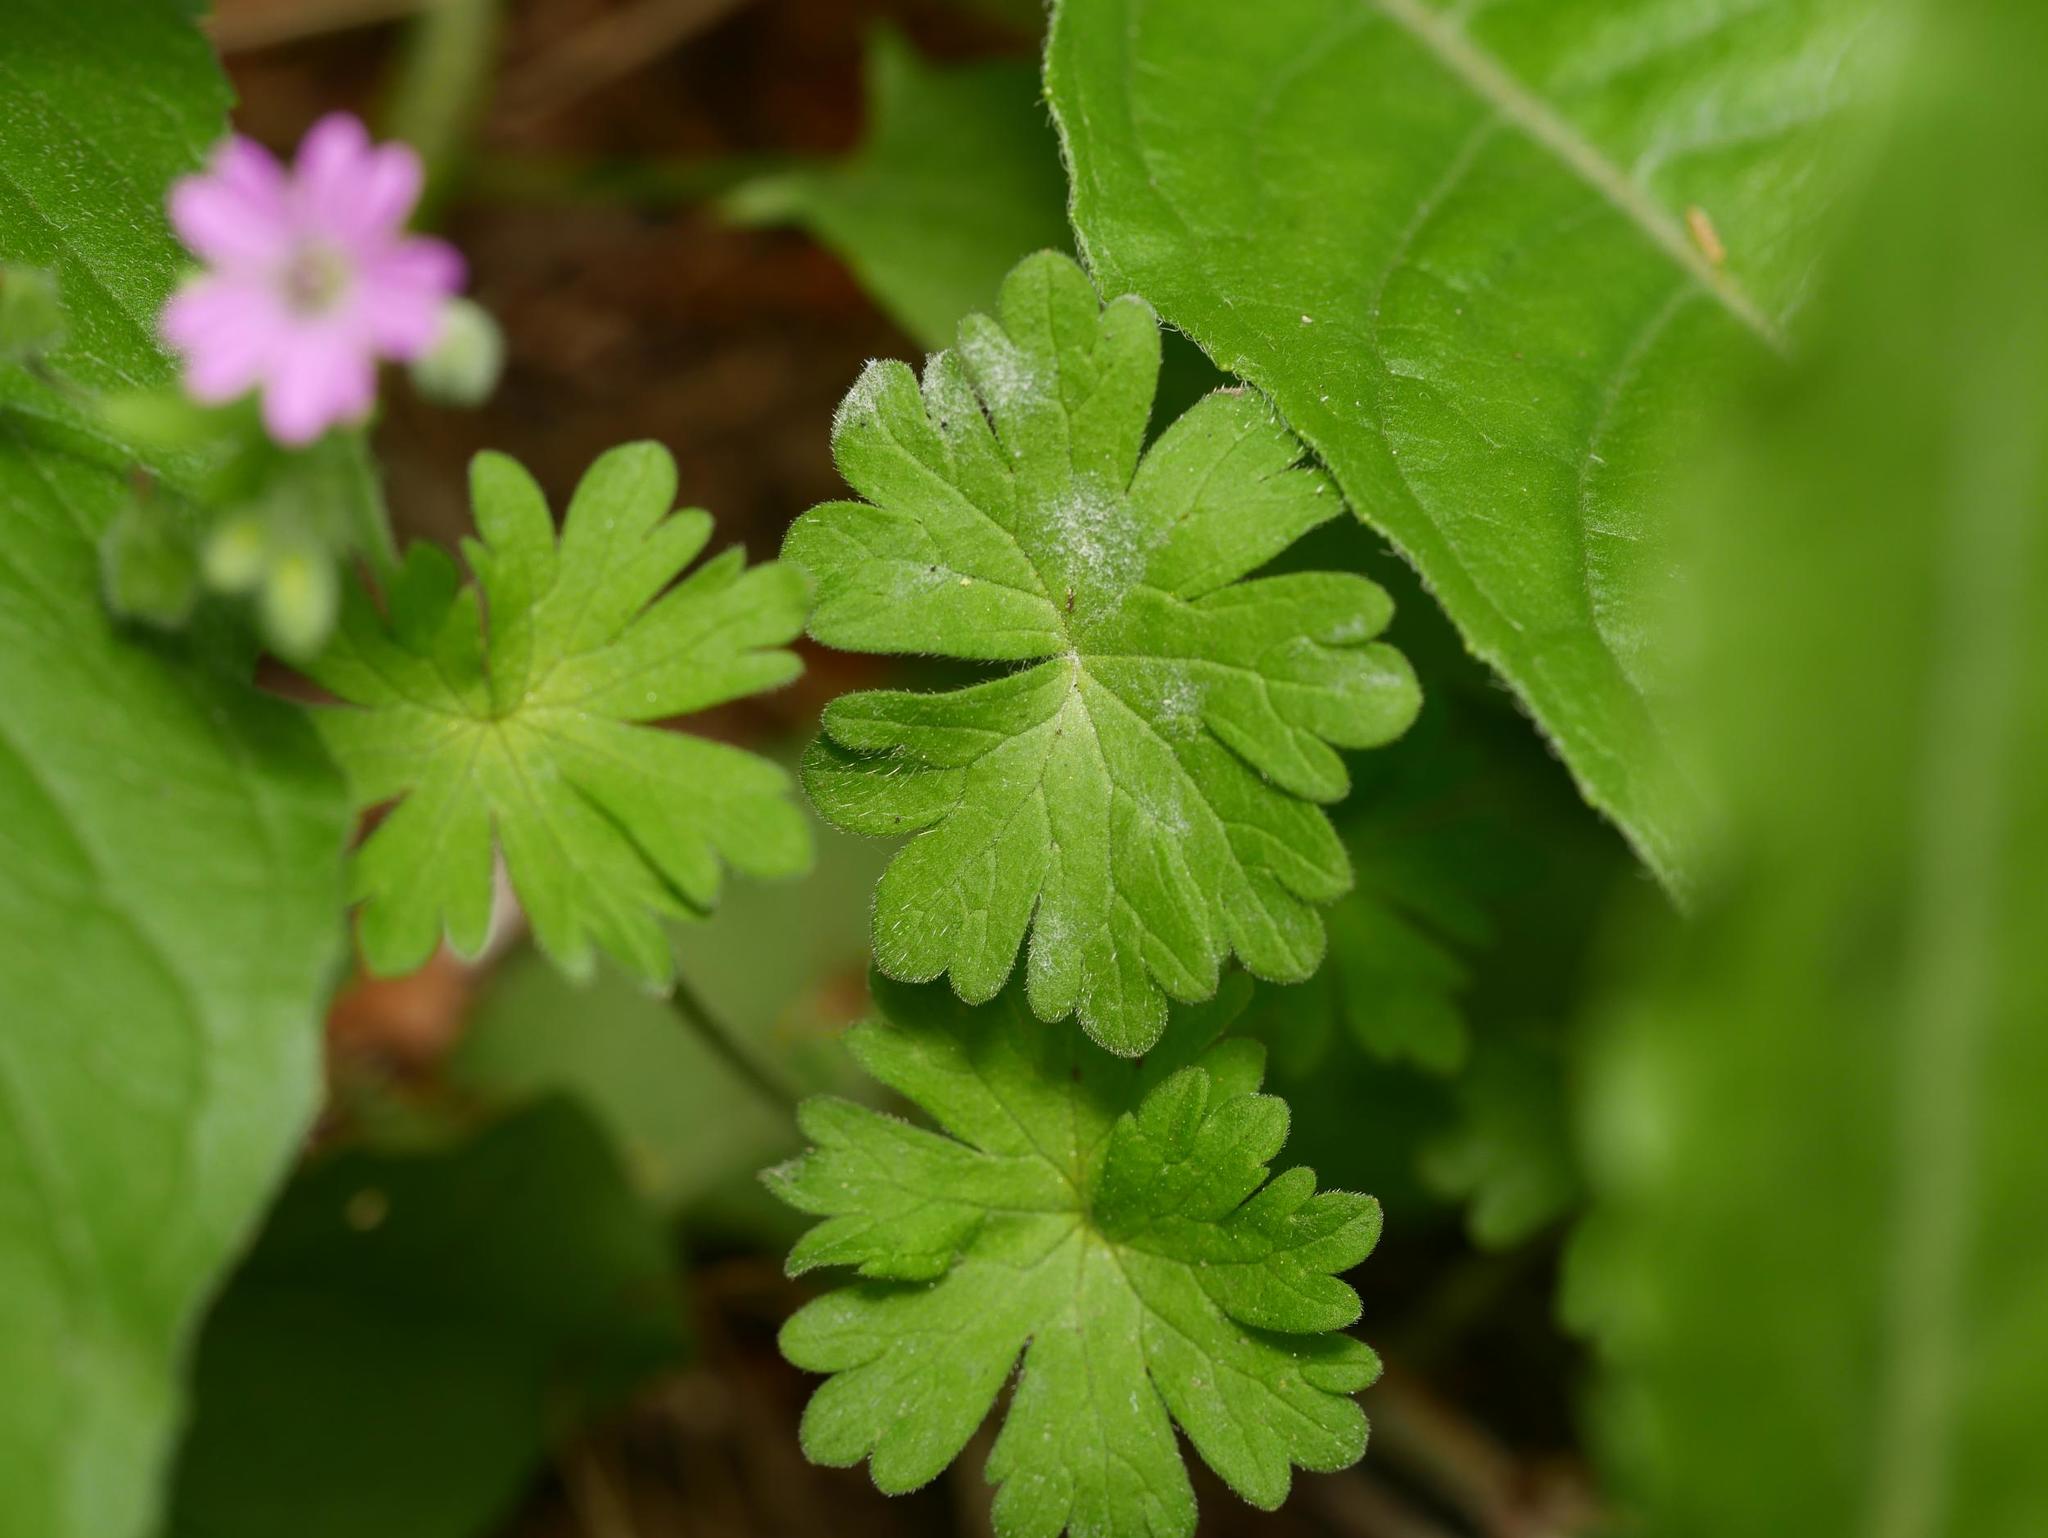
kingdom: Plantae
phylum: Tracheophyta
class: Magnoliopsida
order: Geraniales
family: Geraniaceae
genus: Geranium
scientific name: Geranium molle
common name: Dove's-foot crane's-bill
